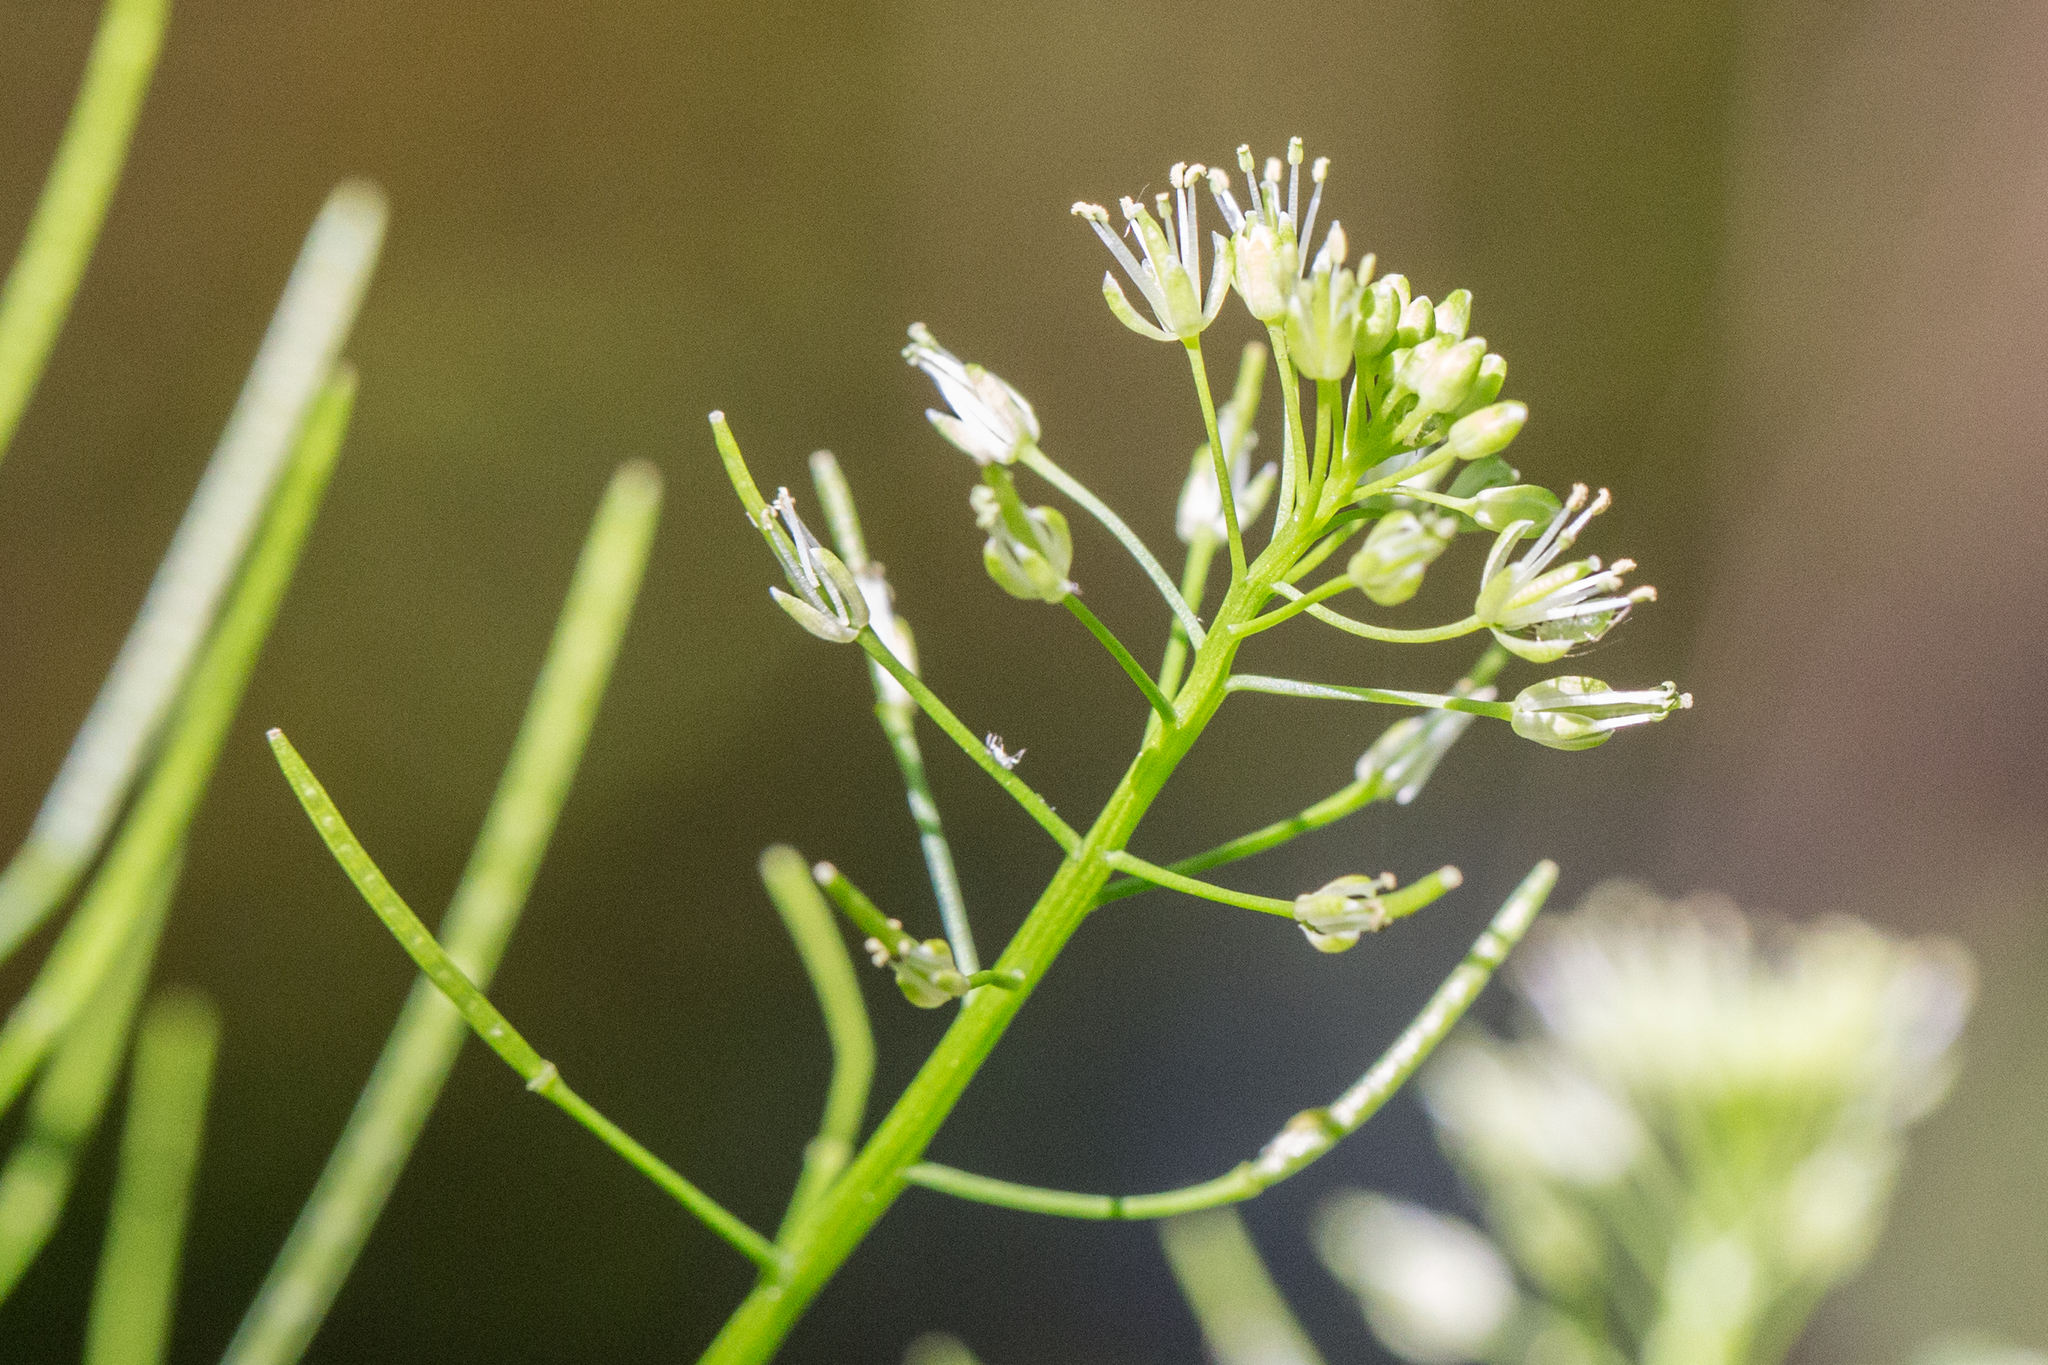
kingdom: Plantae
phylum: Tracheophyta
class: Magnoliopsida
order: Brassicales
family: Brassicaceae
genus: Cardamine
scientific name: Cardamine impatiens
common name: Narrow-leaved bitter-cress
